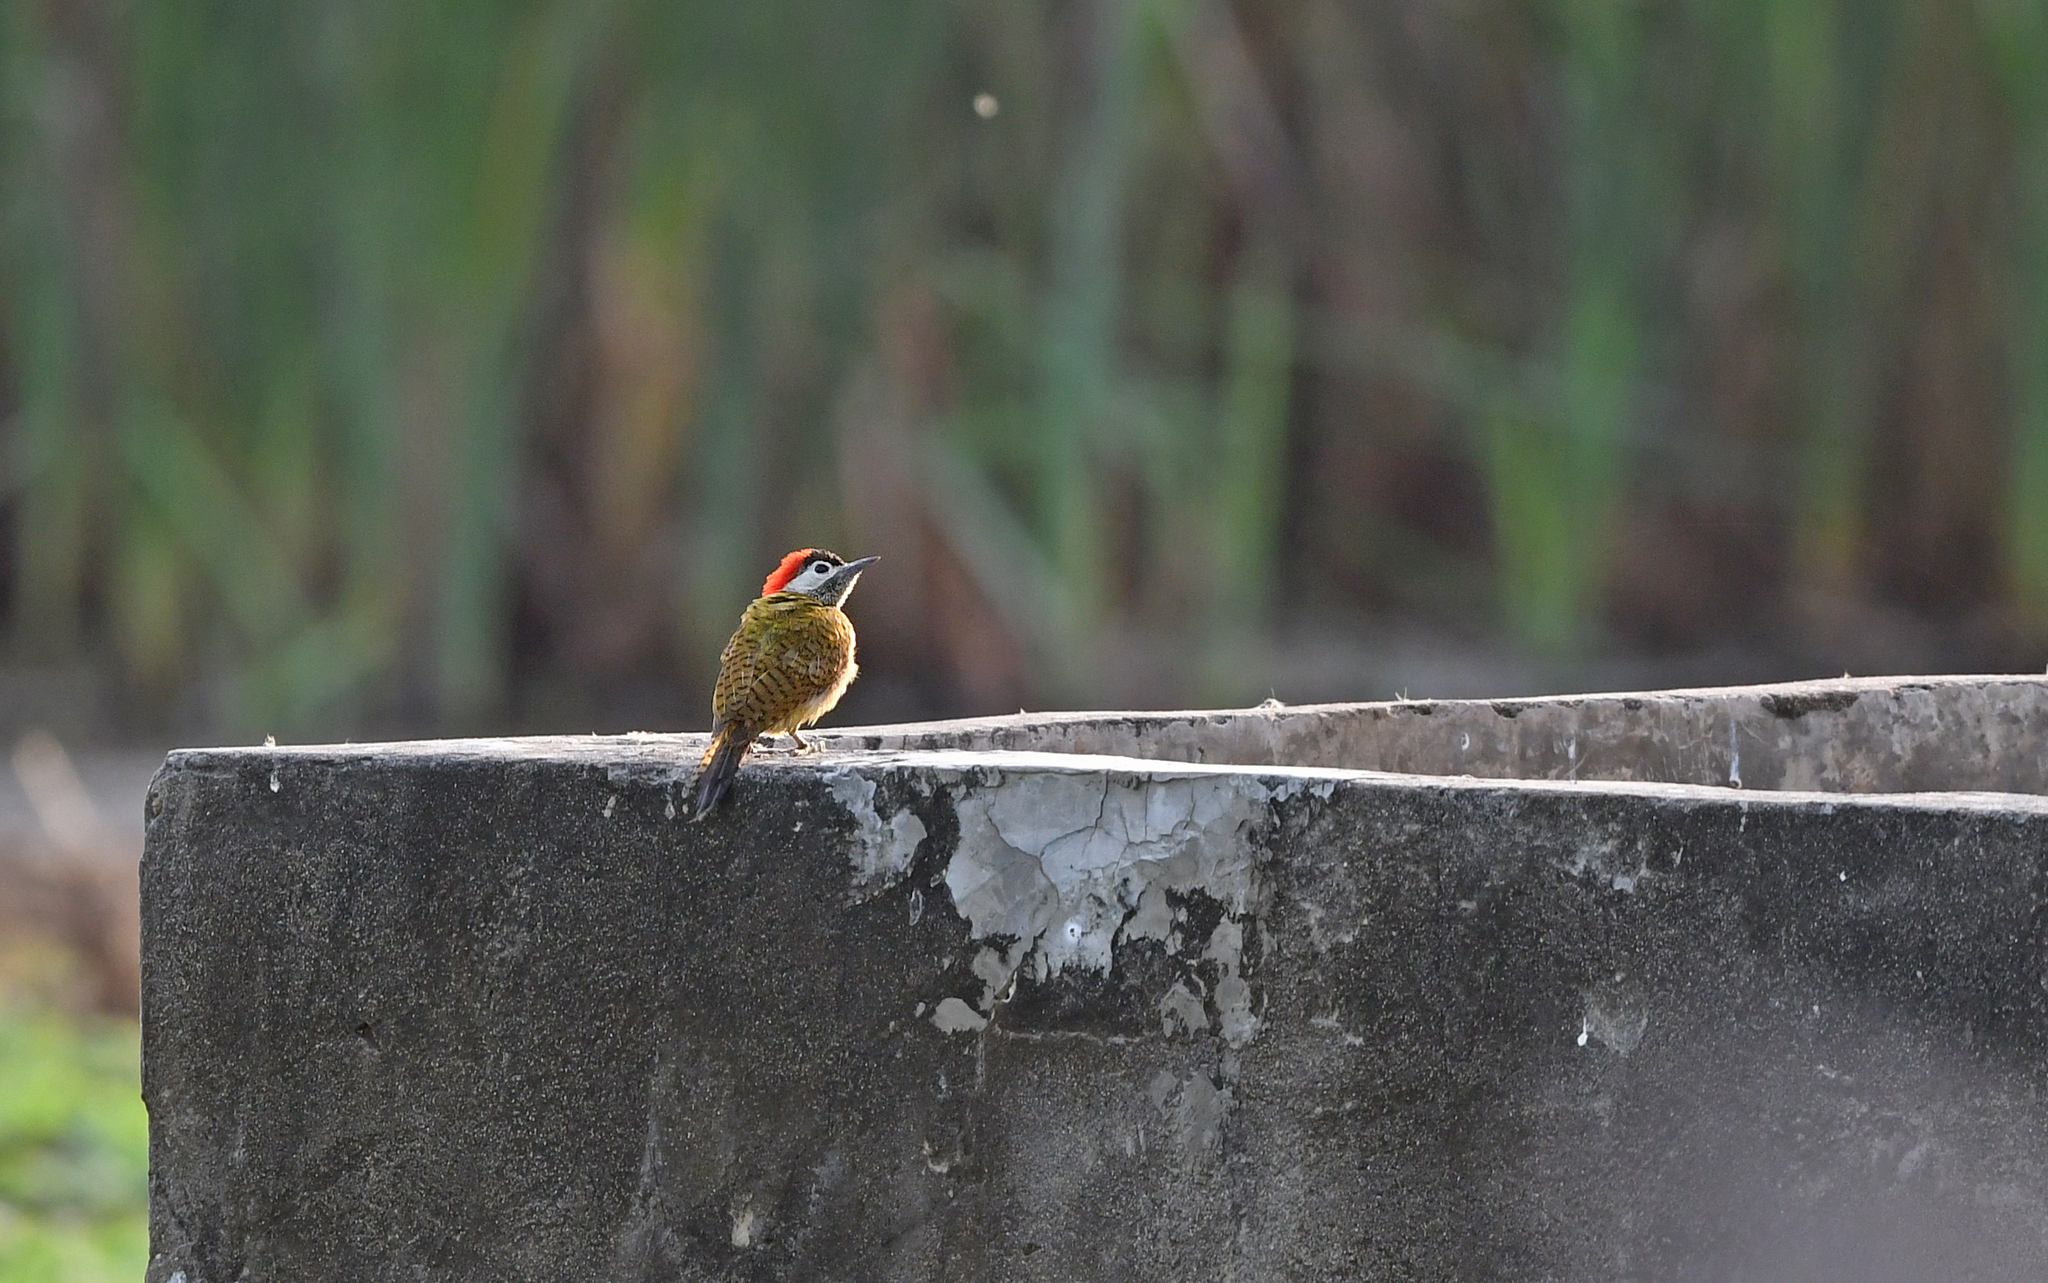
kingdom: Animalia
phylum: Chordata
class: Aves
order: Piciformes
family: Picidae
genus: Colaptes
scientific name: Colaptes punctigula
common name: Spot-breasted woodpecker
